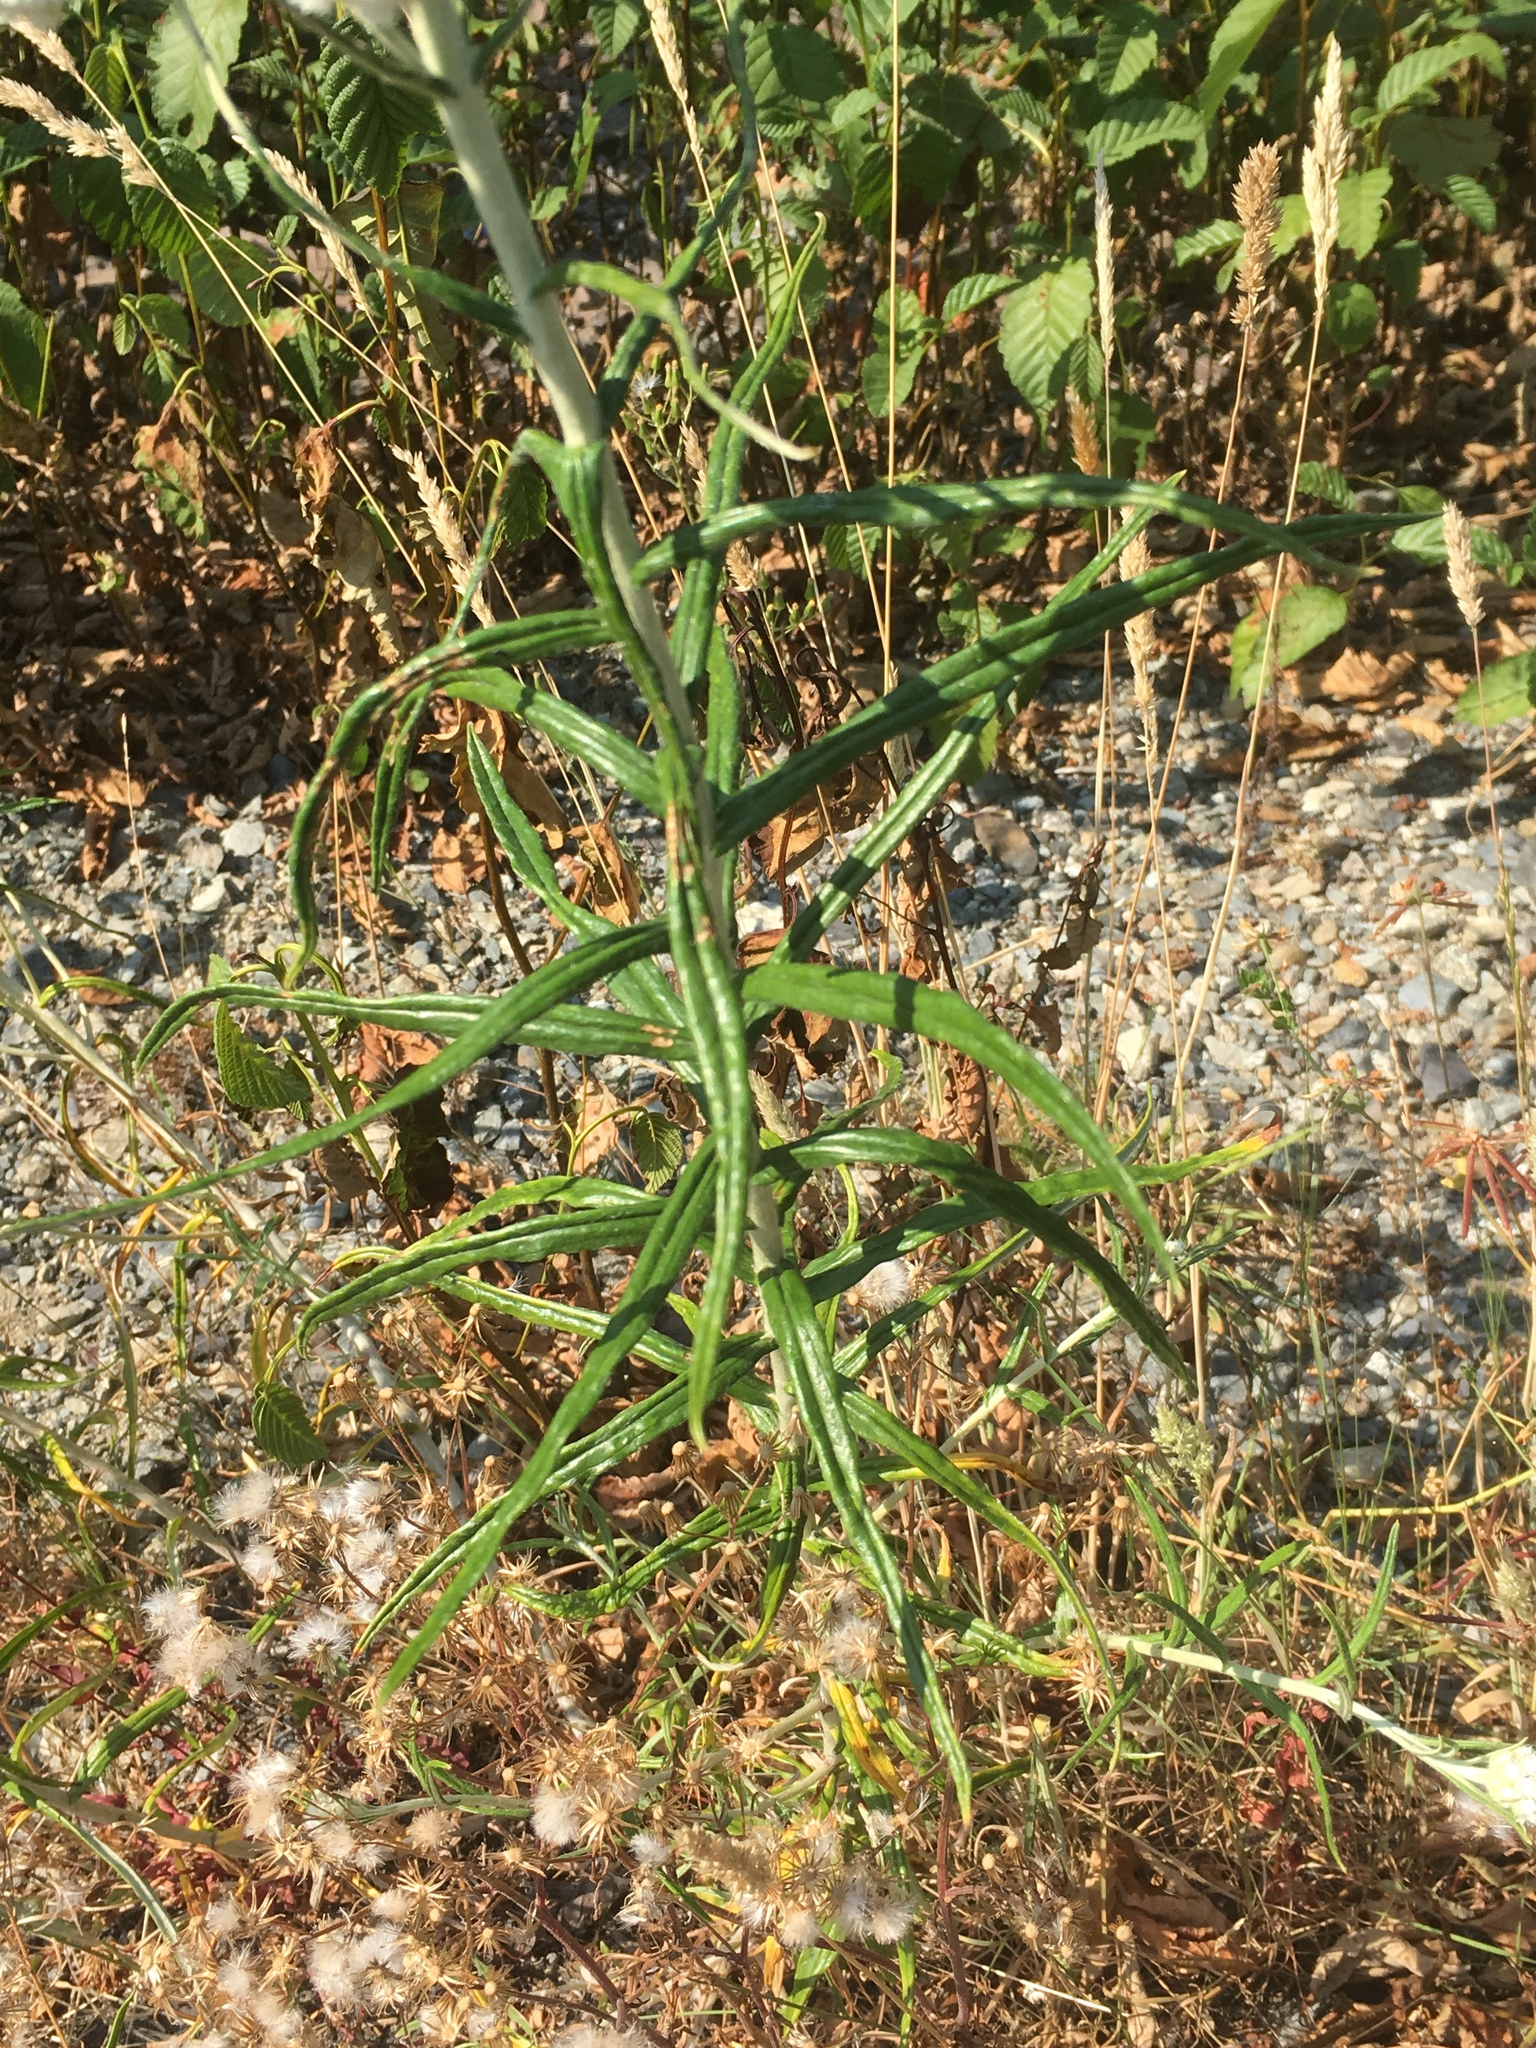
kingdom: Plantae
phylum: Tracheophyta
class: Magnoliopsida
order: Asterales
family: Asteraceae
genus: Anaphalis
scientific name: Anaphalis margaritacea
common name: Pearly everlasting
